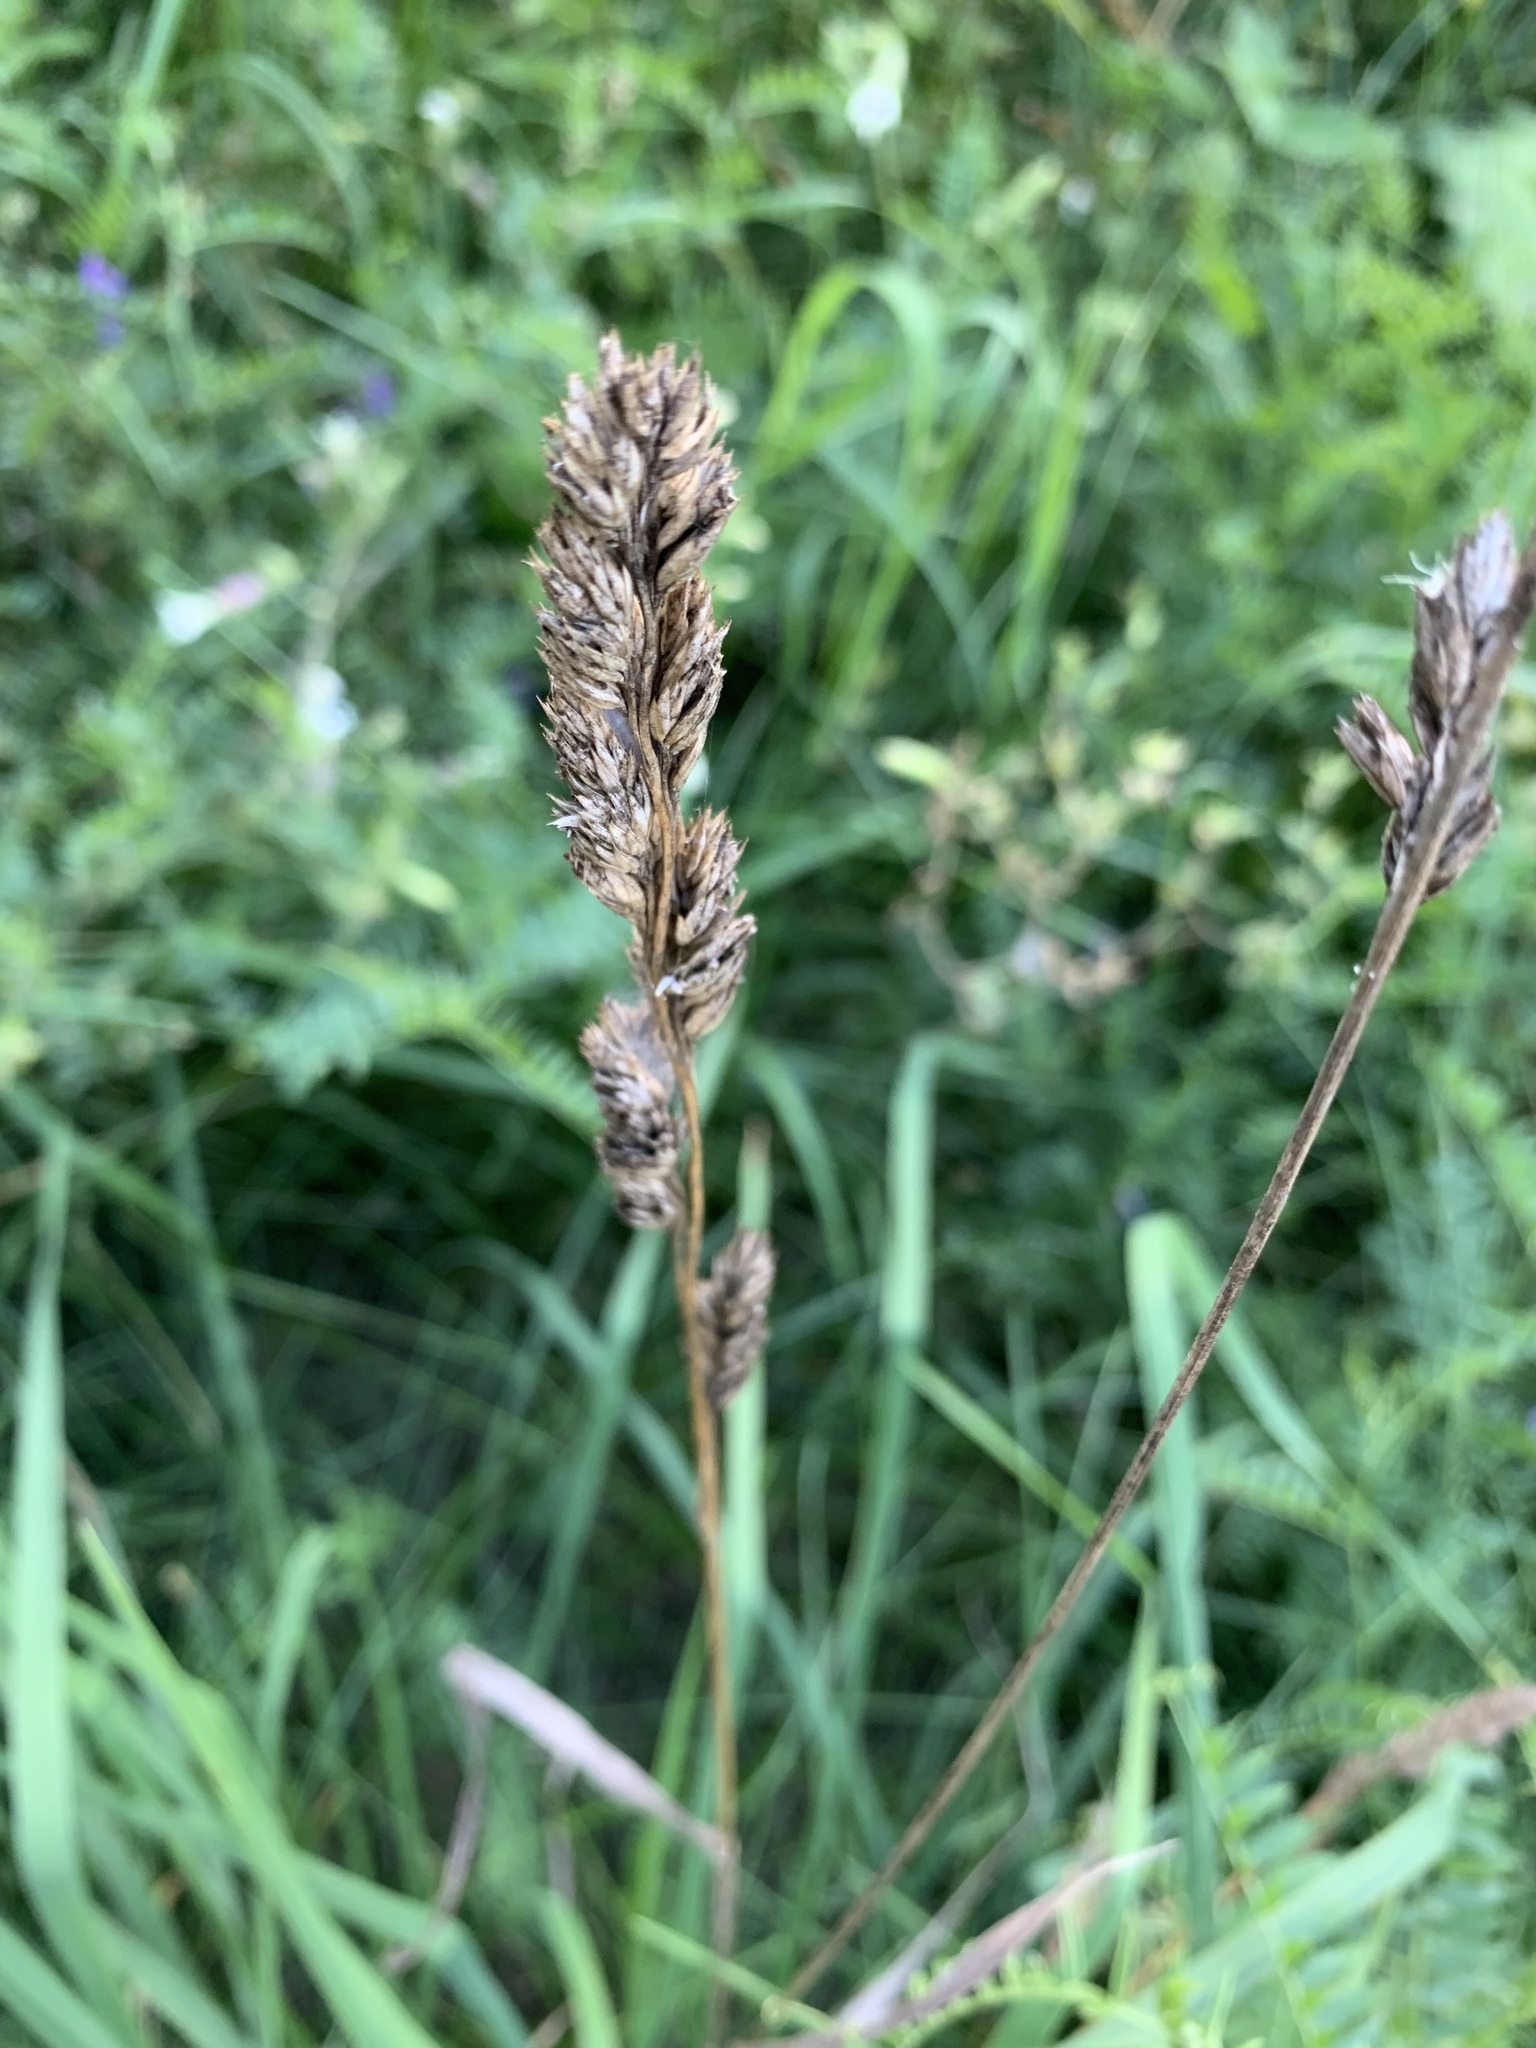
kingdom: Plantae
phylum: Tracheophyta
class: Liliopsida
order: Poales
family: Poaceae
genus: Dactylis
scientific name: Dactylis glomerata
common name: Orchardgrass
